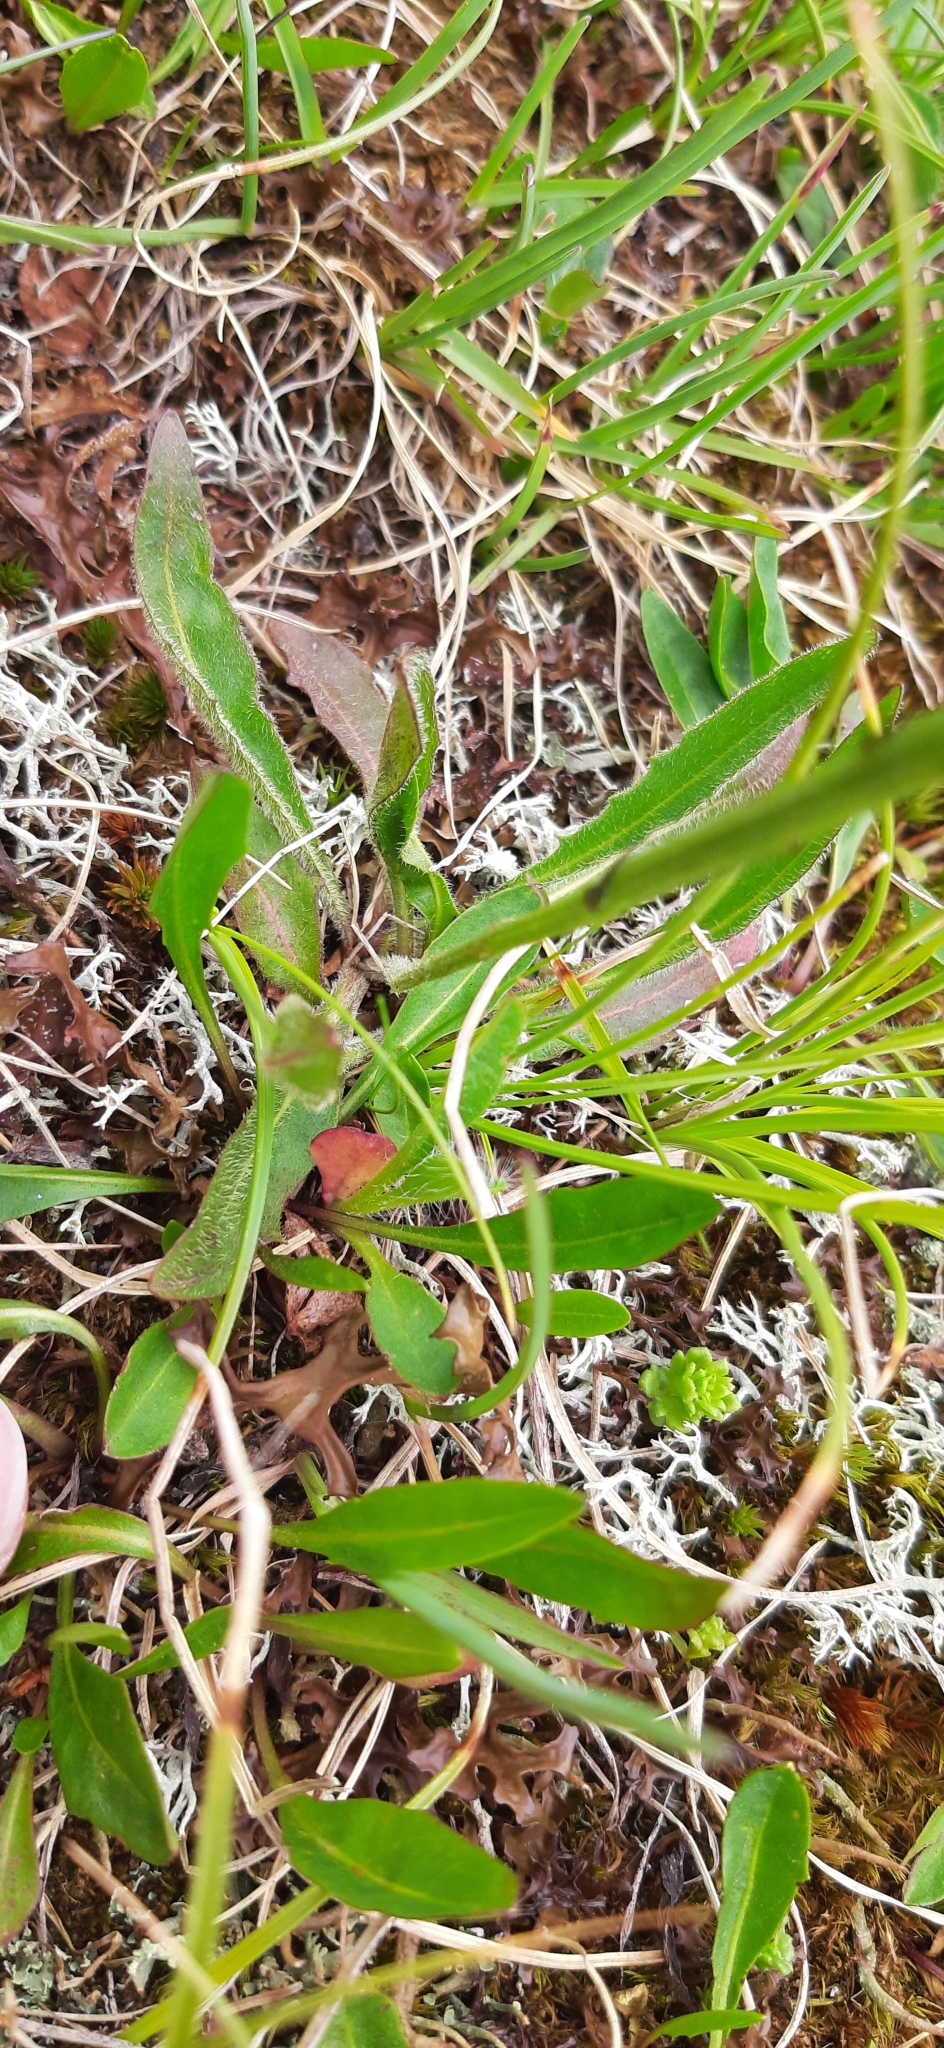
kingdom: Plantae
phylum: Tracheophyta
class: Magnoliopsida
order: Asterales
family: Asteraceae
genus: Scorzoneroides
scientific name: Scorzoneroides helvetica
